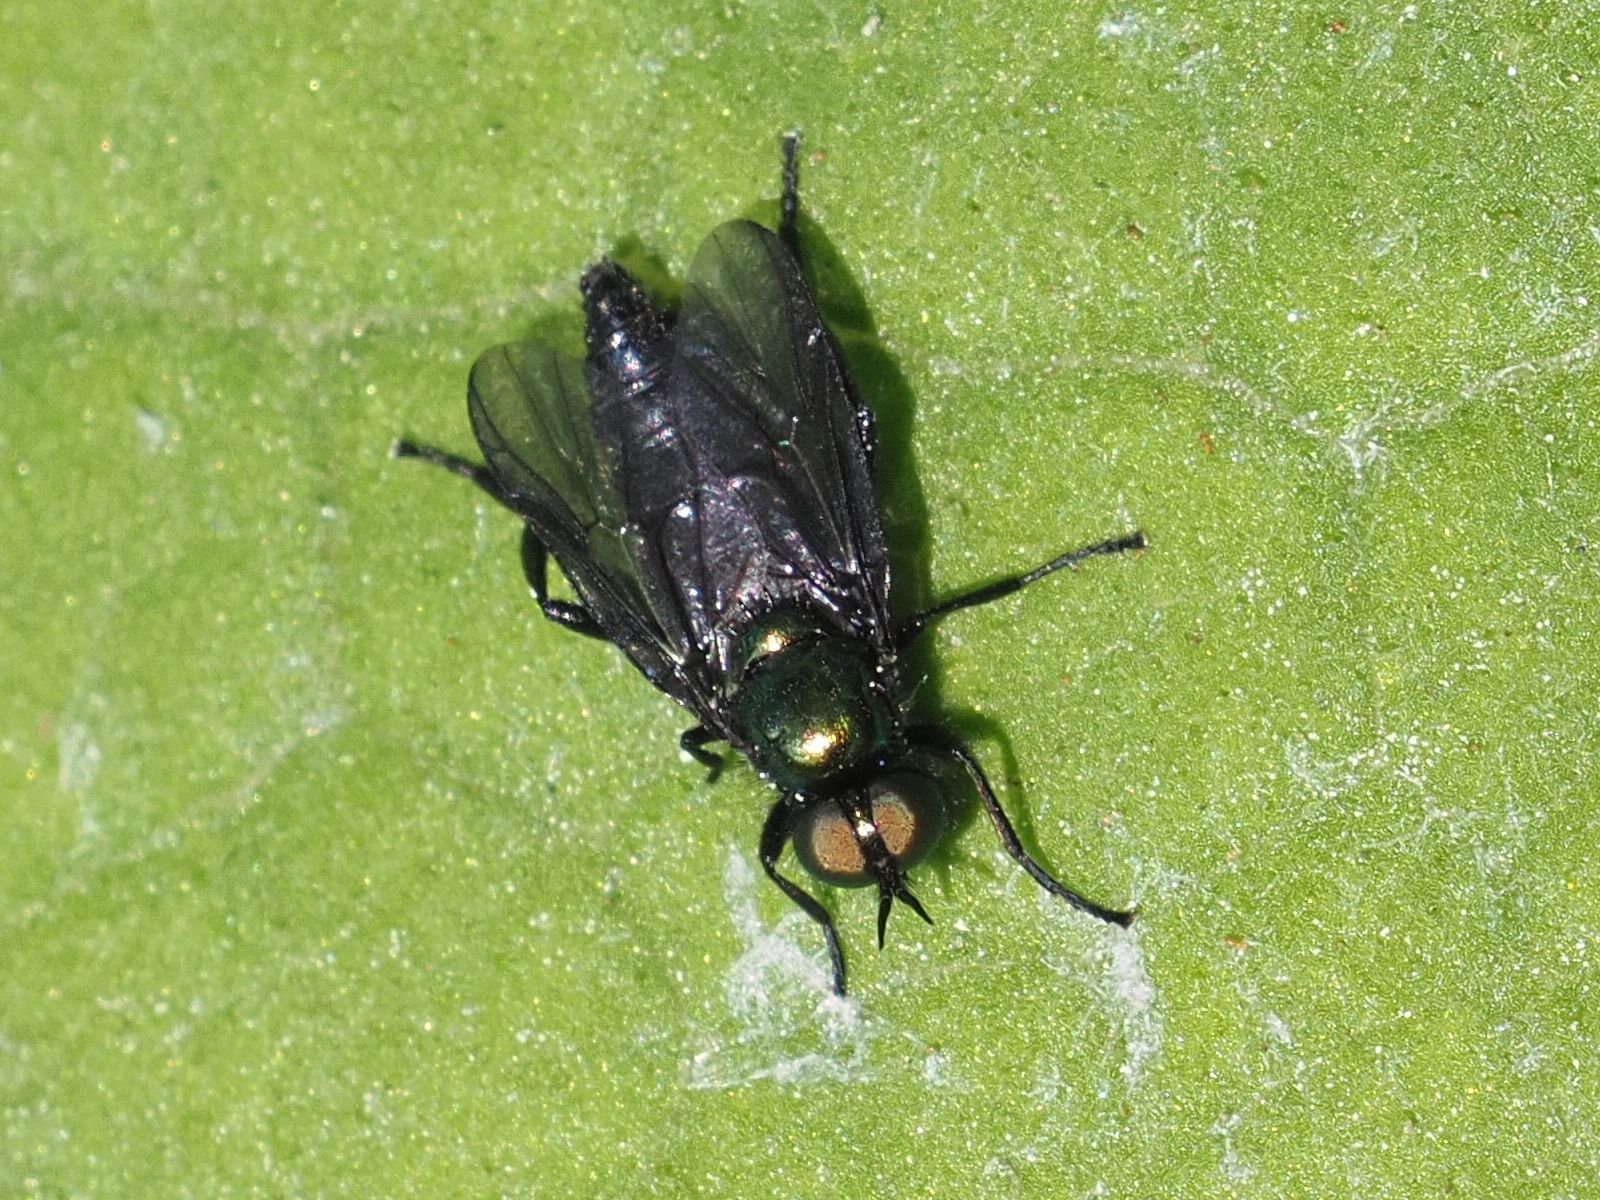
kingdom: Animalia
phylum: Arthropoda
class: Insecta
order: Diptera
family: Stratiomyidae
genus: Actina
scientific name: Actina chalybea
